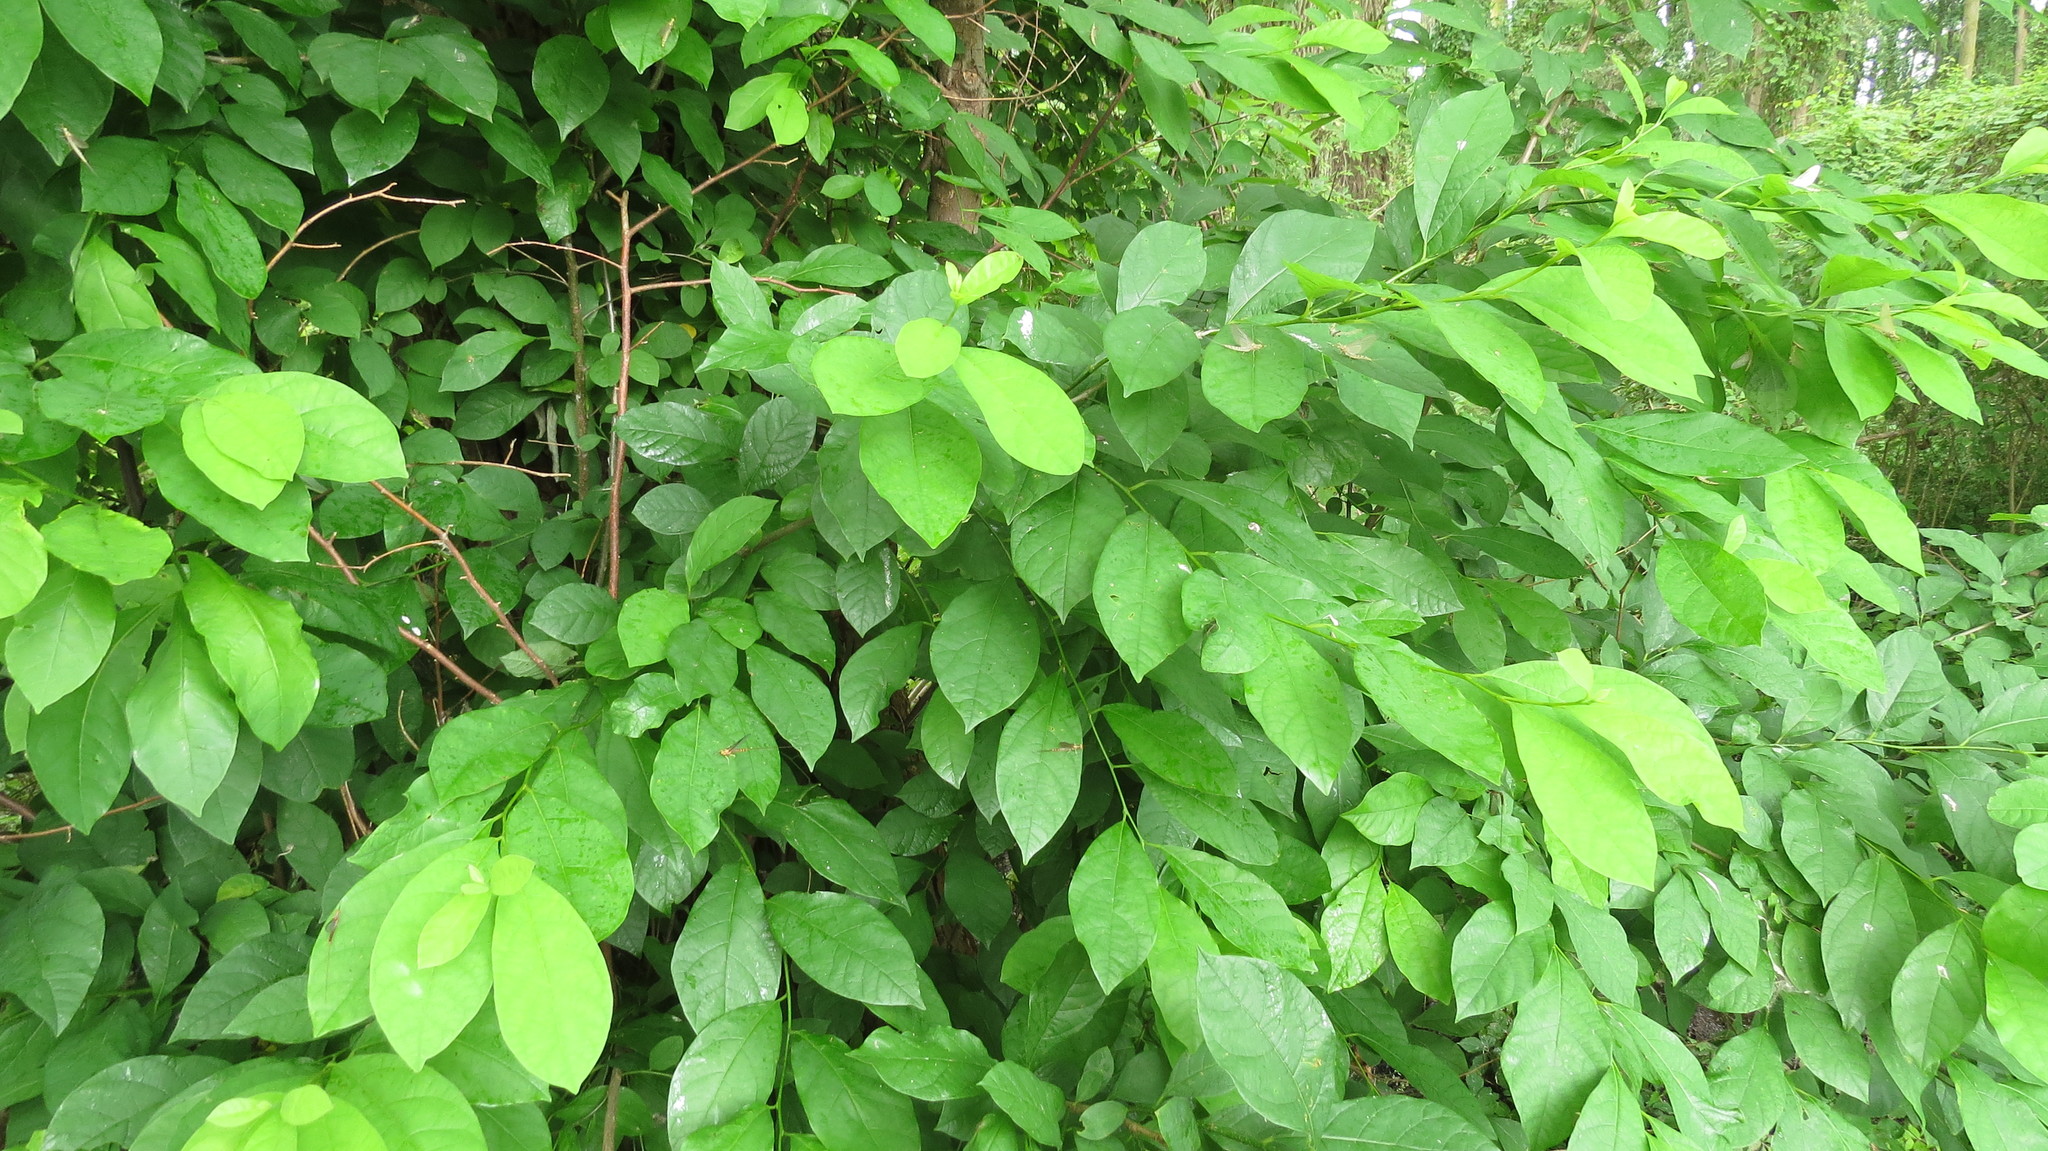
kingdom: Plantae
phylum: Tracheophyta
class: Magnoliopsida
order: Laurales
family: Lauraceae
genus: Lindera
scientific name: Lindera benzoin
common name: Spicebush
